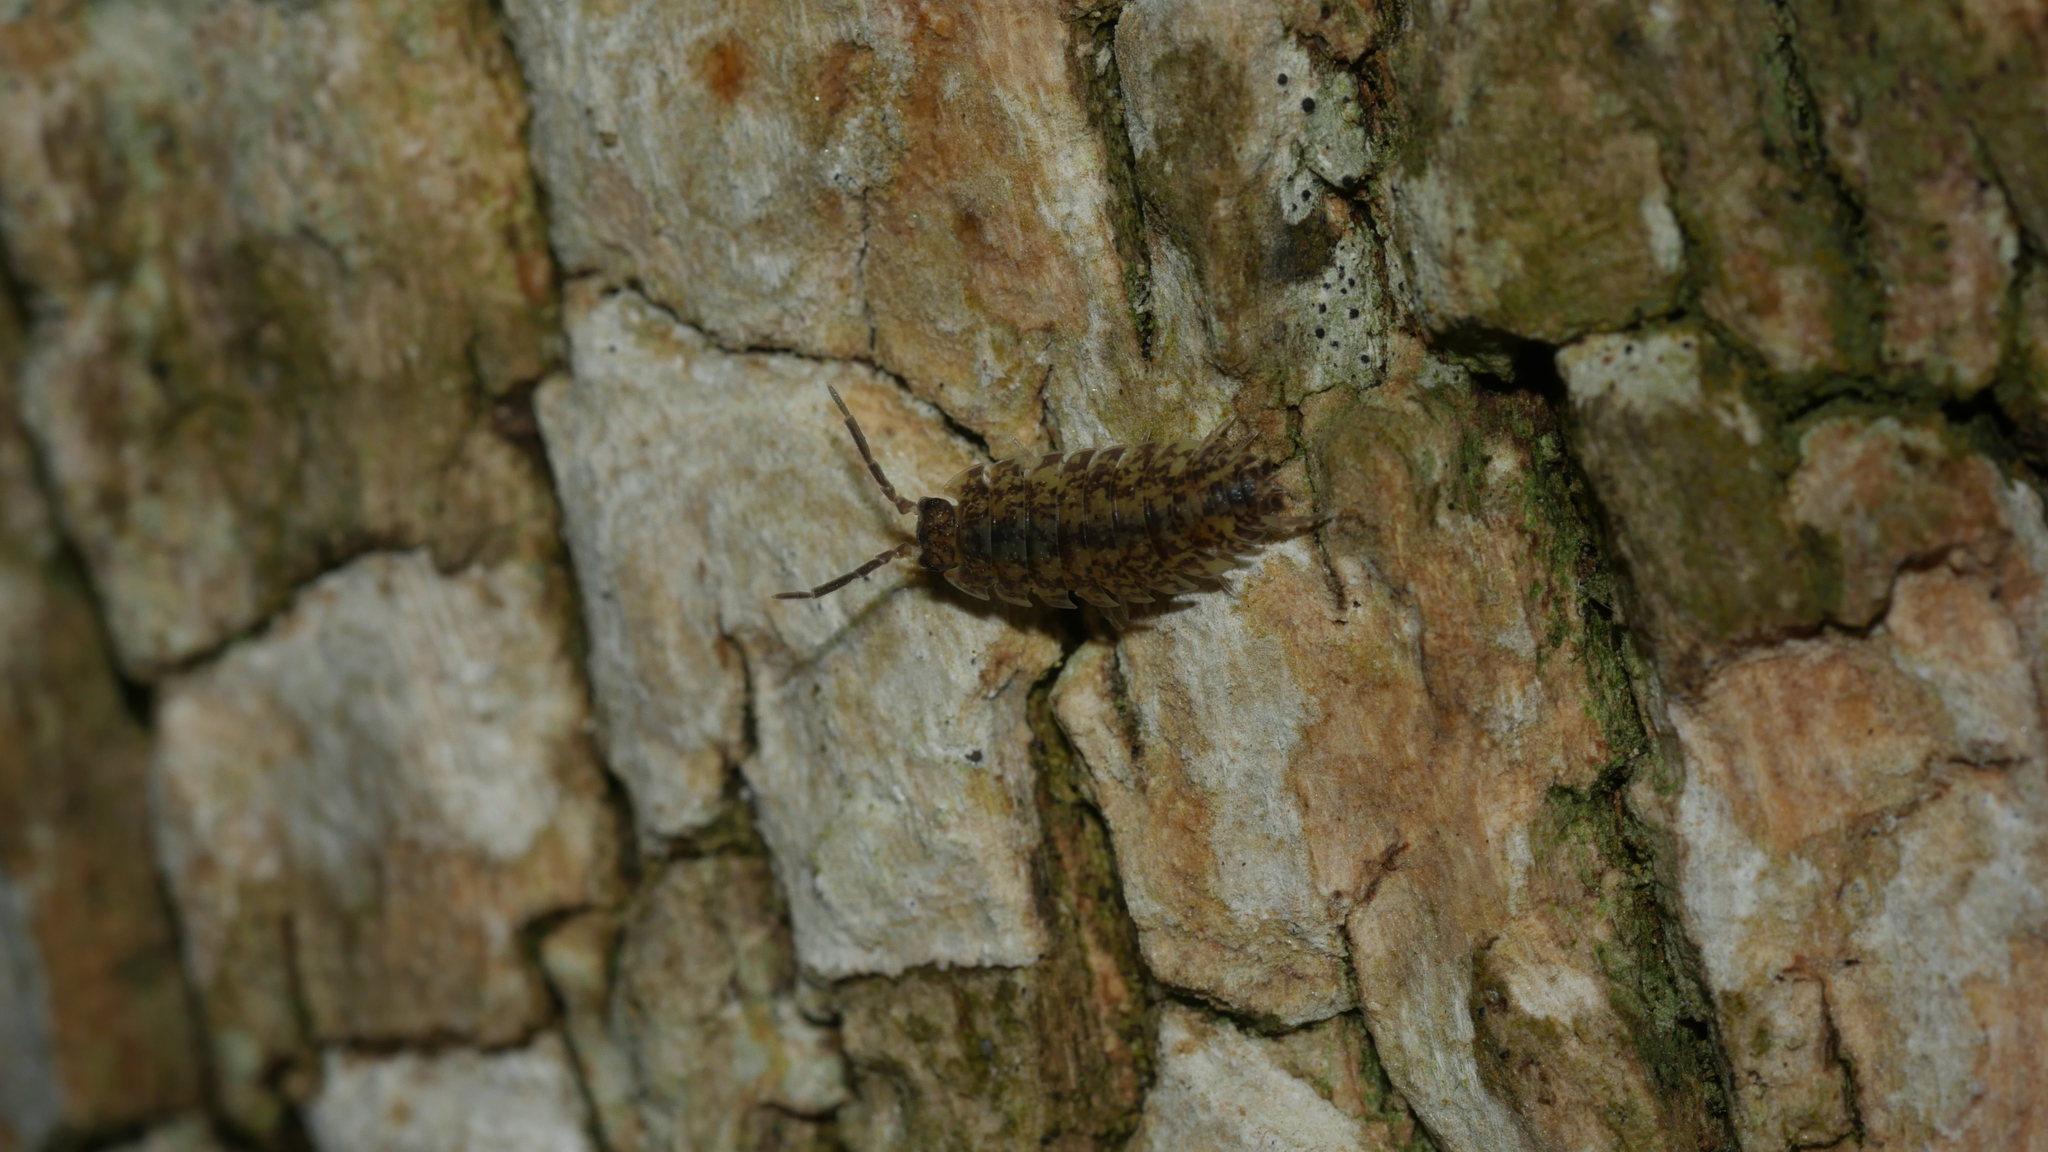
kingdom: Animalia
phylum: Arthropoda
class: Malacostraca
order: Isopoda
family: Porcellionidae
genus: Porcellio
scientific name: Porcellio scaber
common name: Common rough woodlouse
